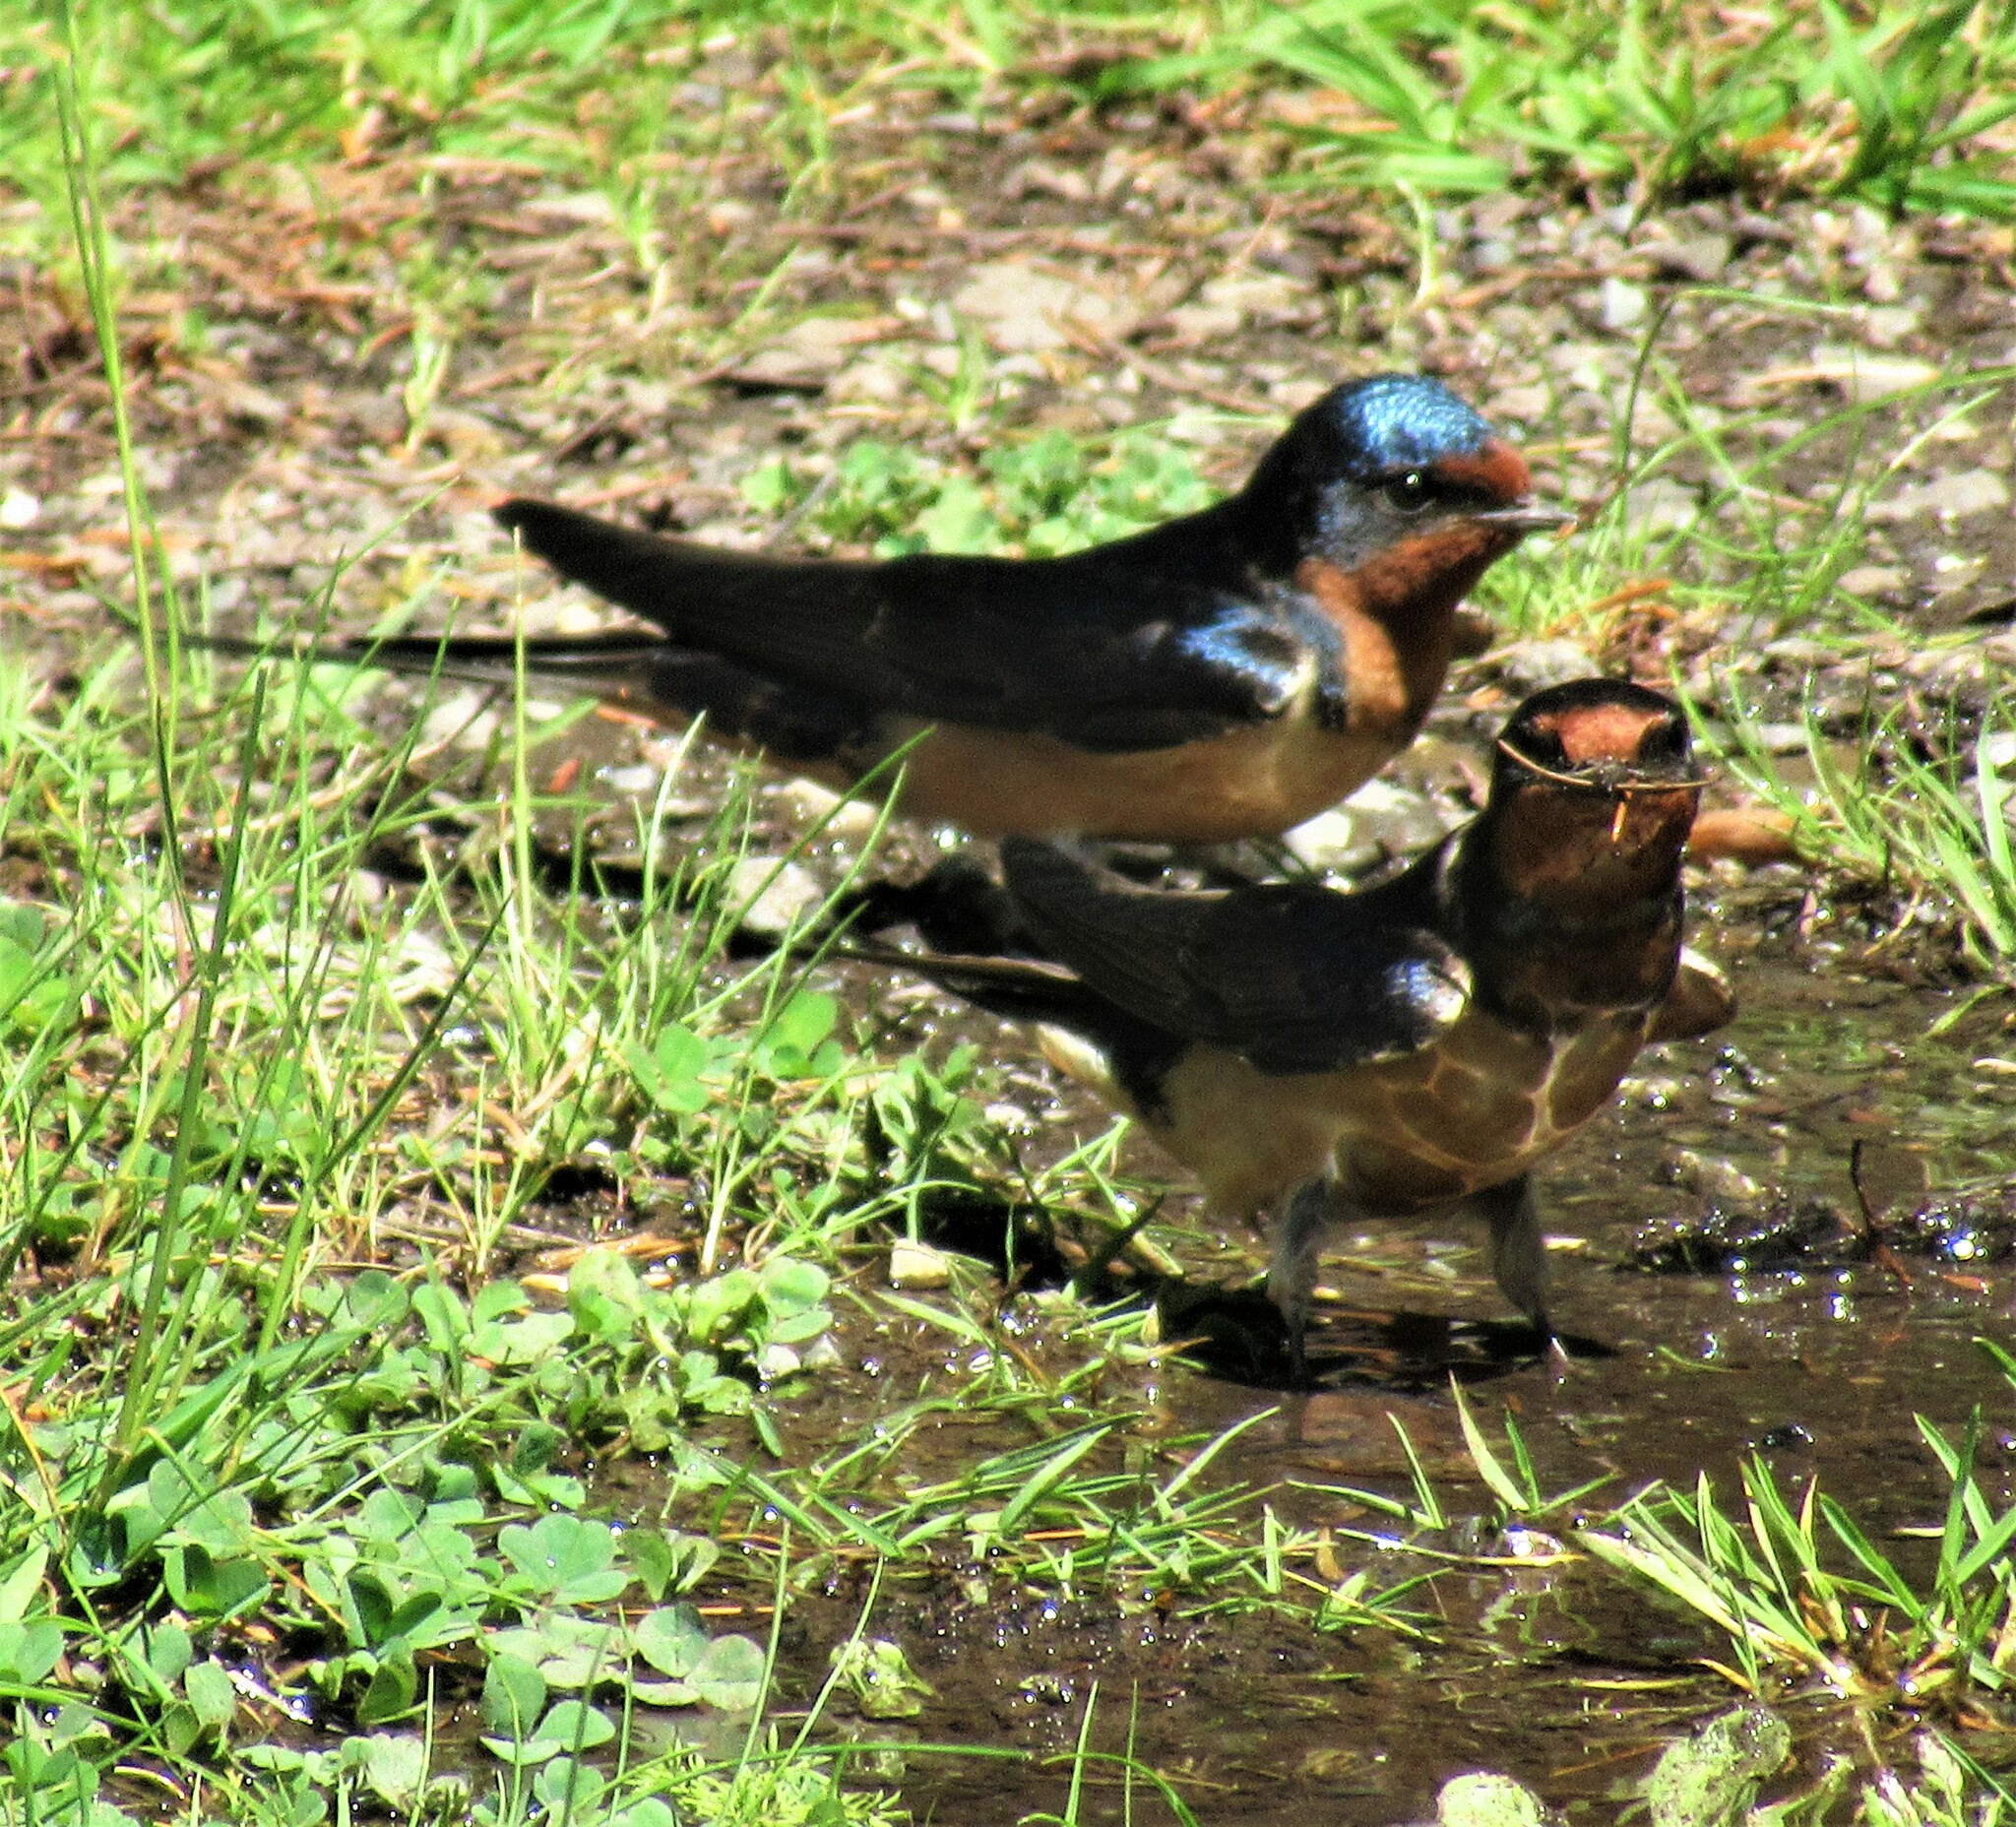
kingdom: Animalia
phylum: Chordata
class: Aves
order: Passeriformes
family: Hirundinidae
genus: Hirundo
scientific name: Hirundo rustica
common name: Barn swallow
